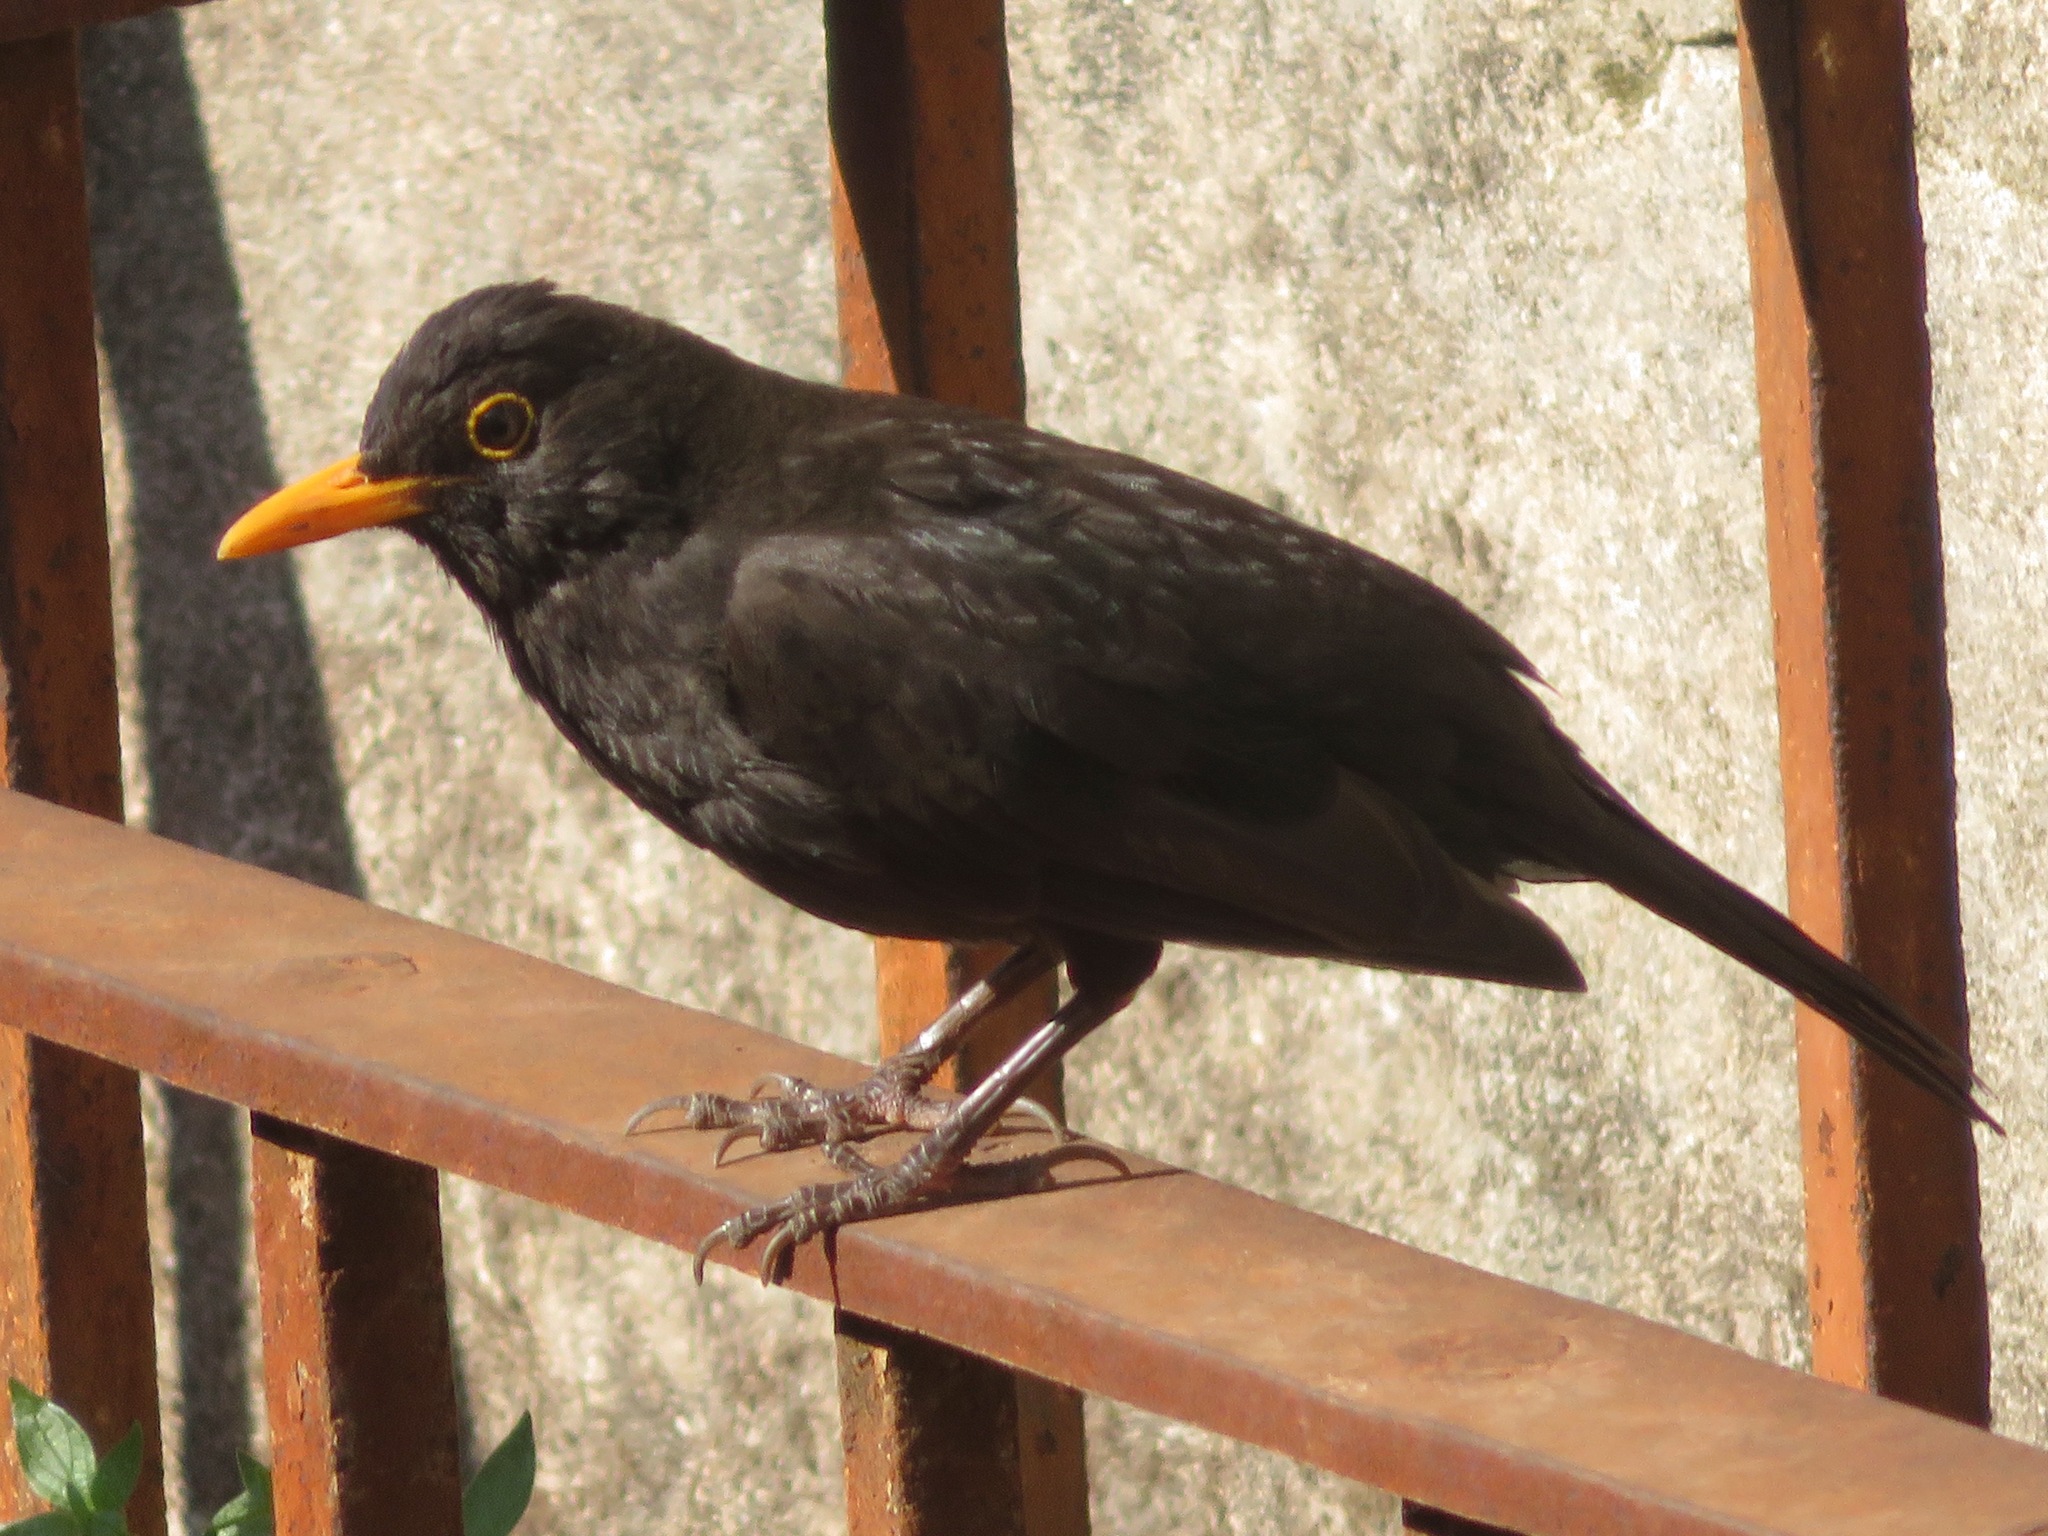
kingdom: Animalia
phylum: Chordata
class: Aves
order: Passeriformes
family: Turdidae
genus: Turdus
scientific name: Turdus merula
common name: Common blackbird
